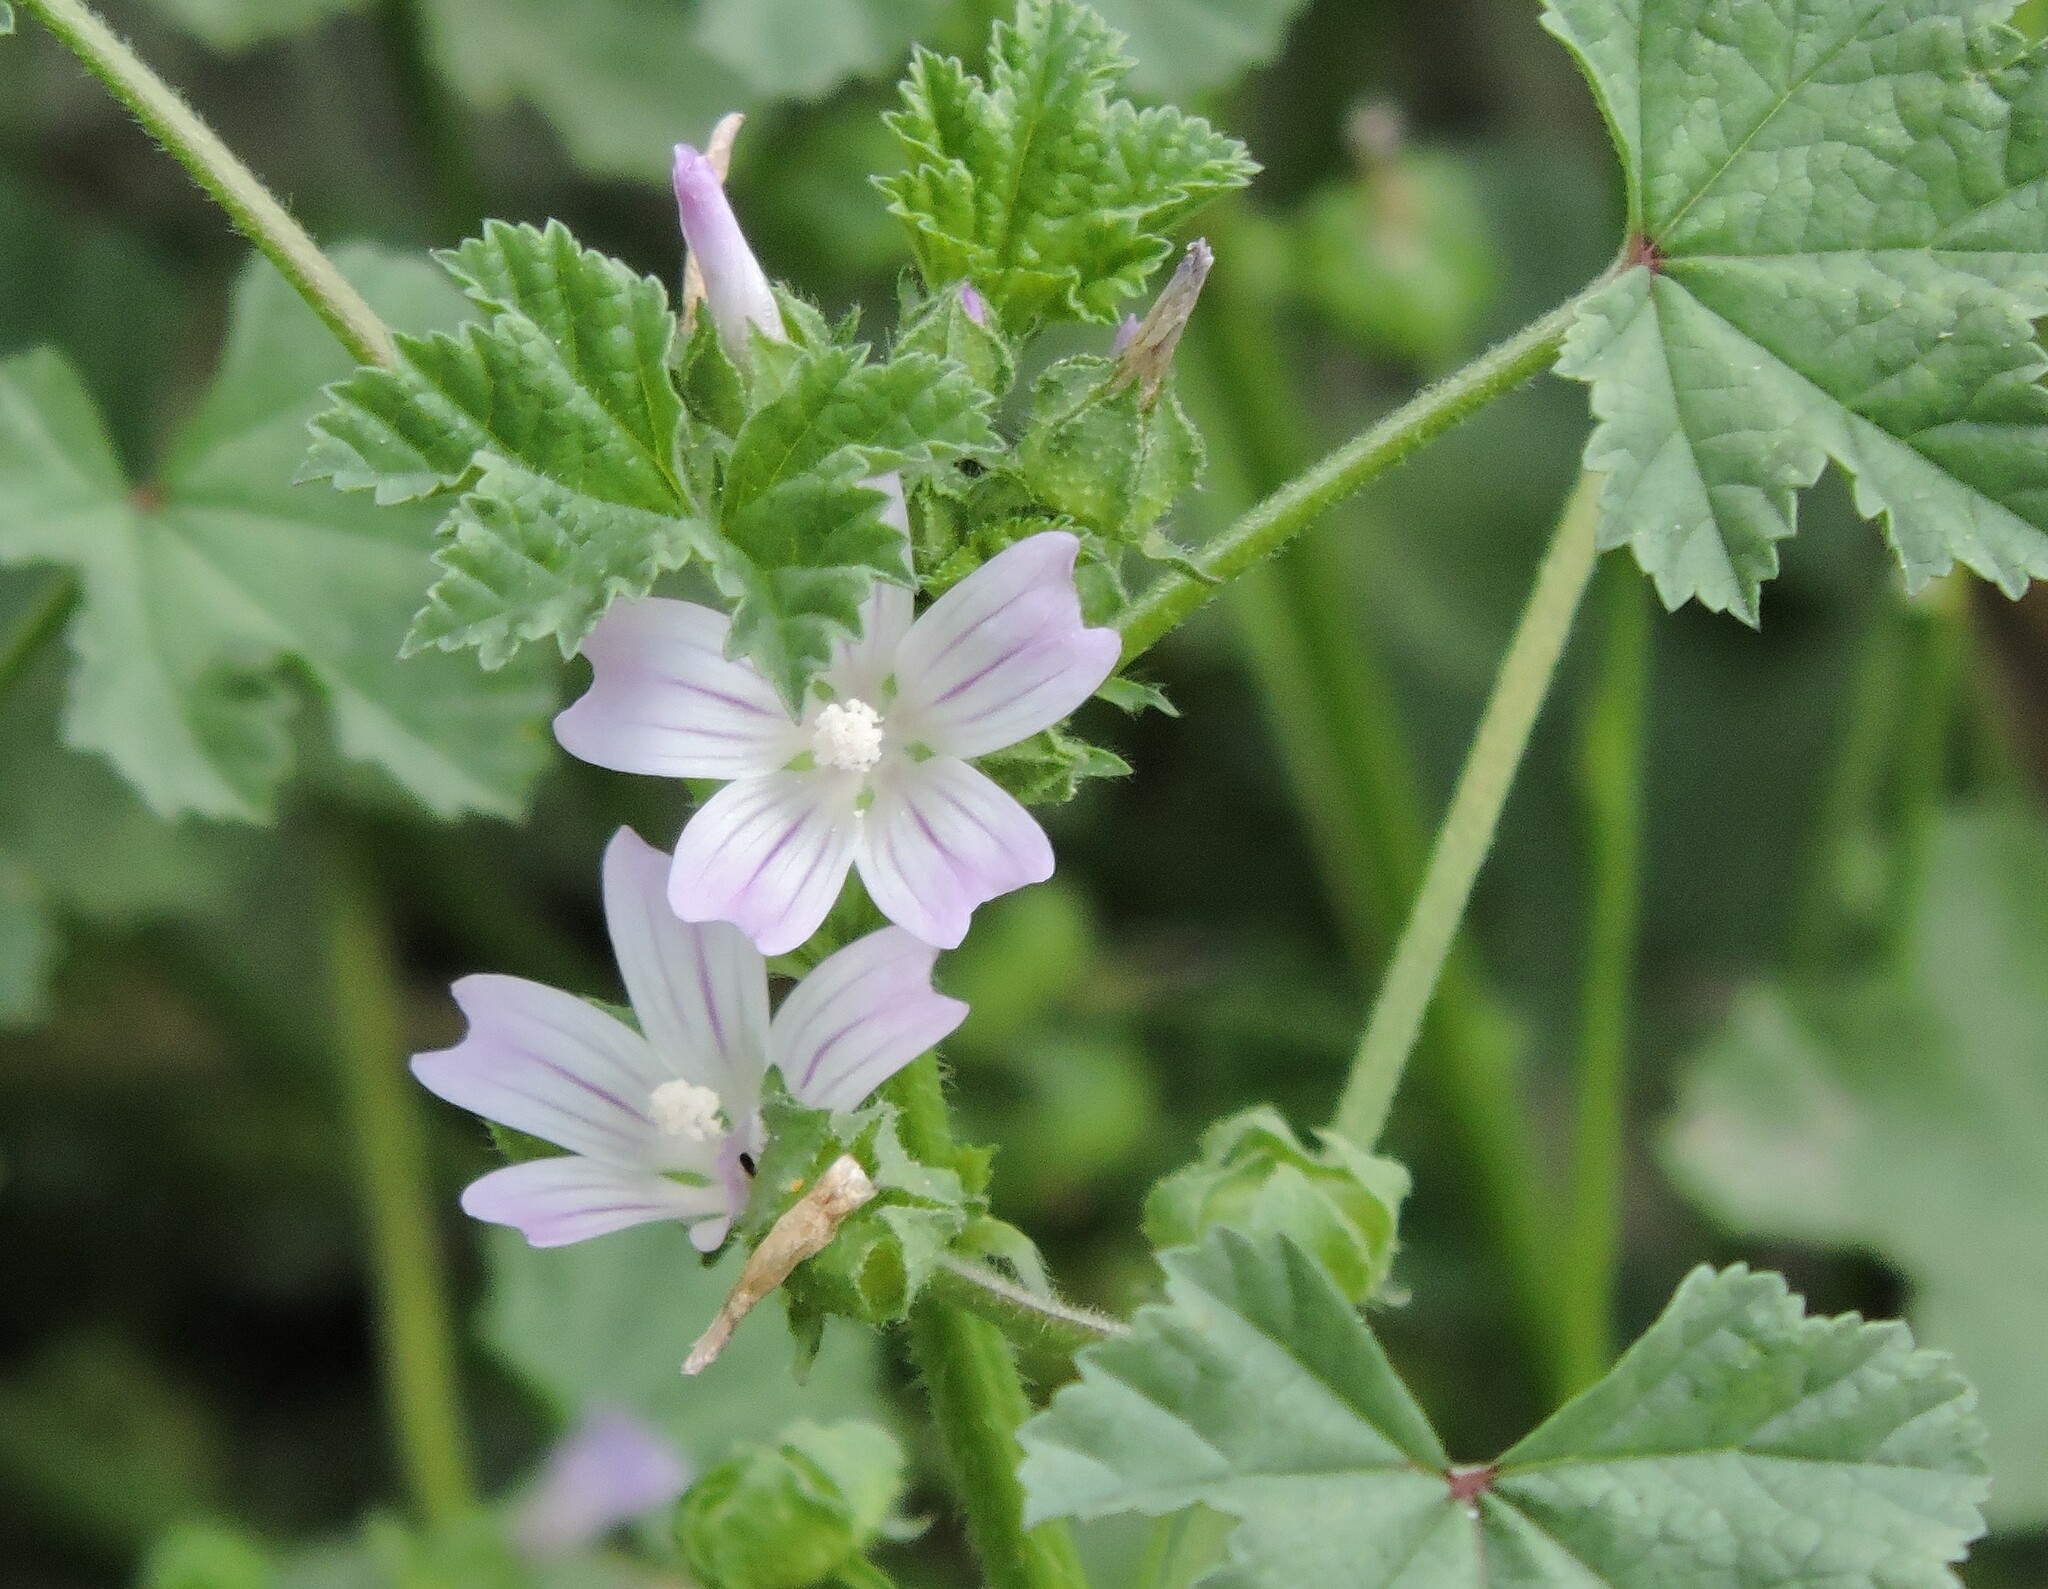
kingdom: Plantae
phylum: Tracheophyta
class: Magnoliopsida
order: Malvales
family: Malvaceae
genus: Malva
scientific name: Malva neglecta
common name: Common mallow
